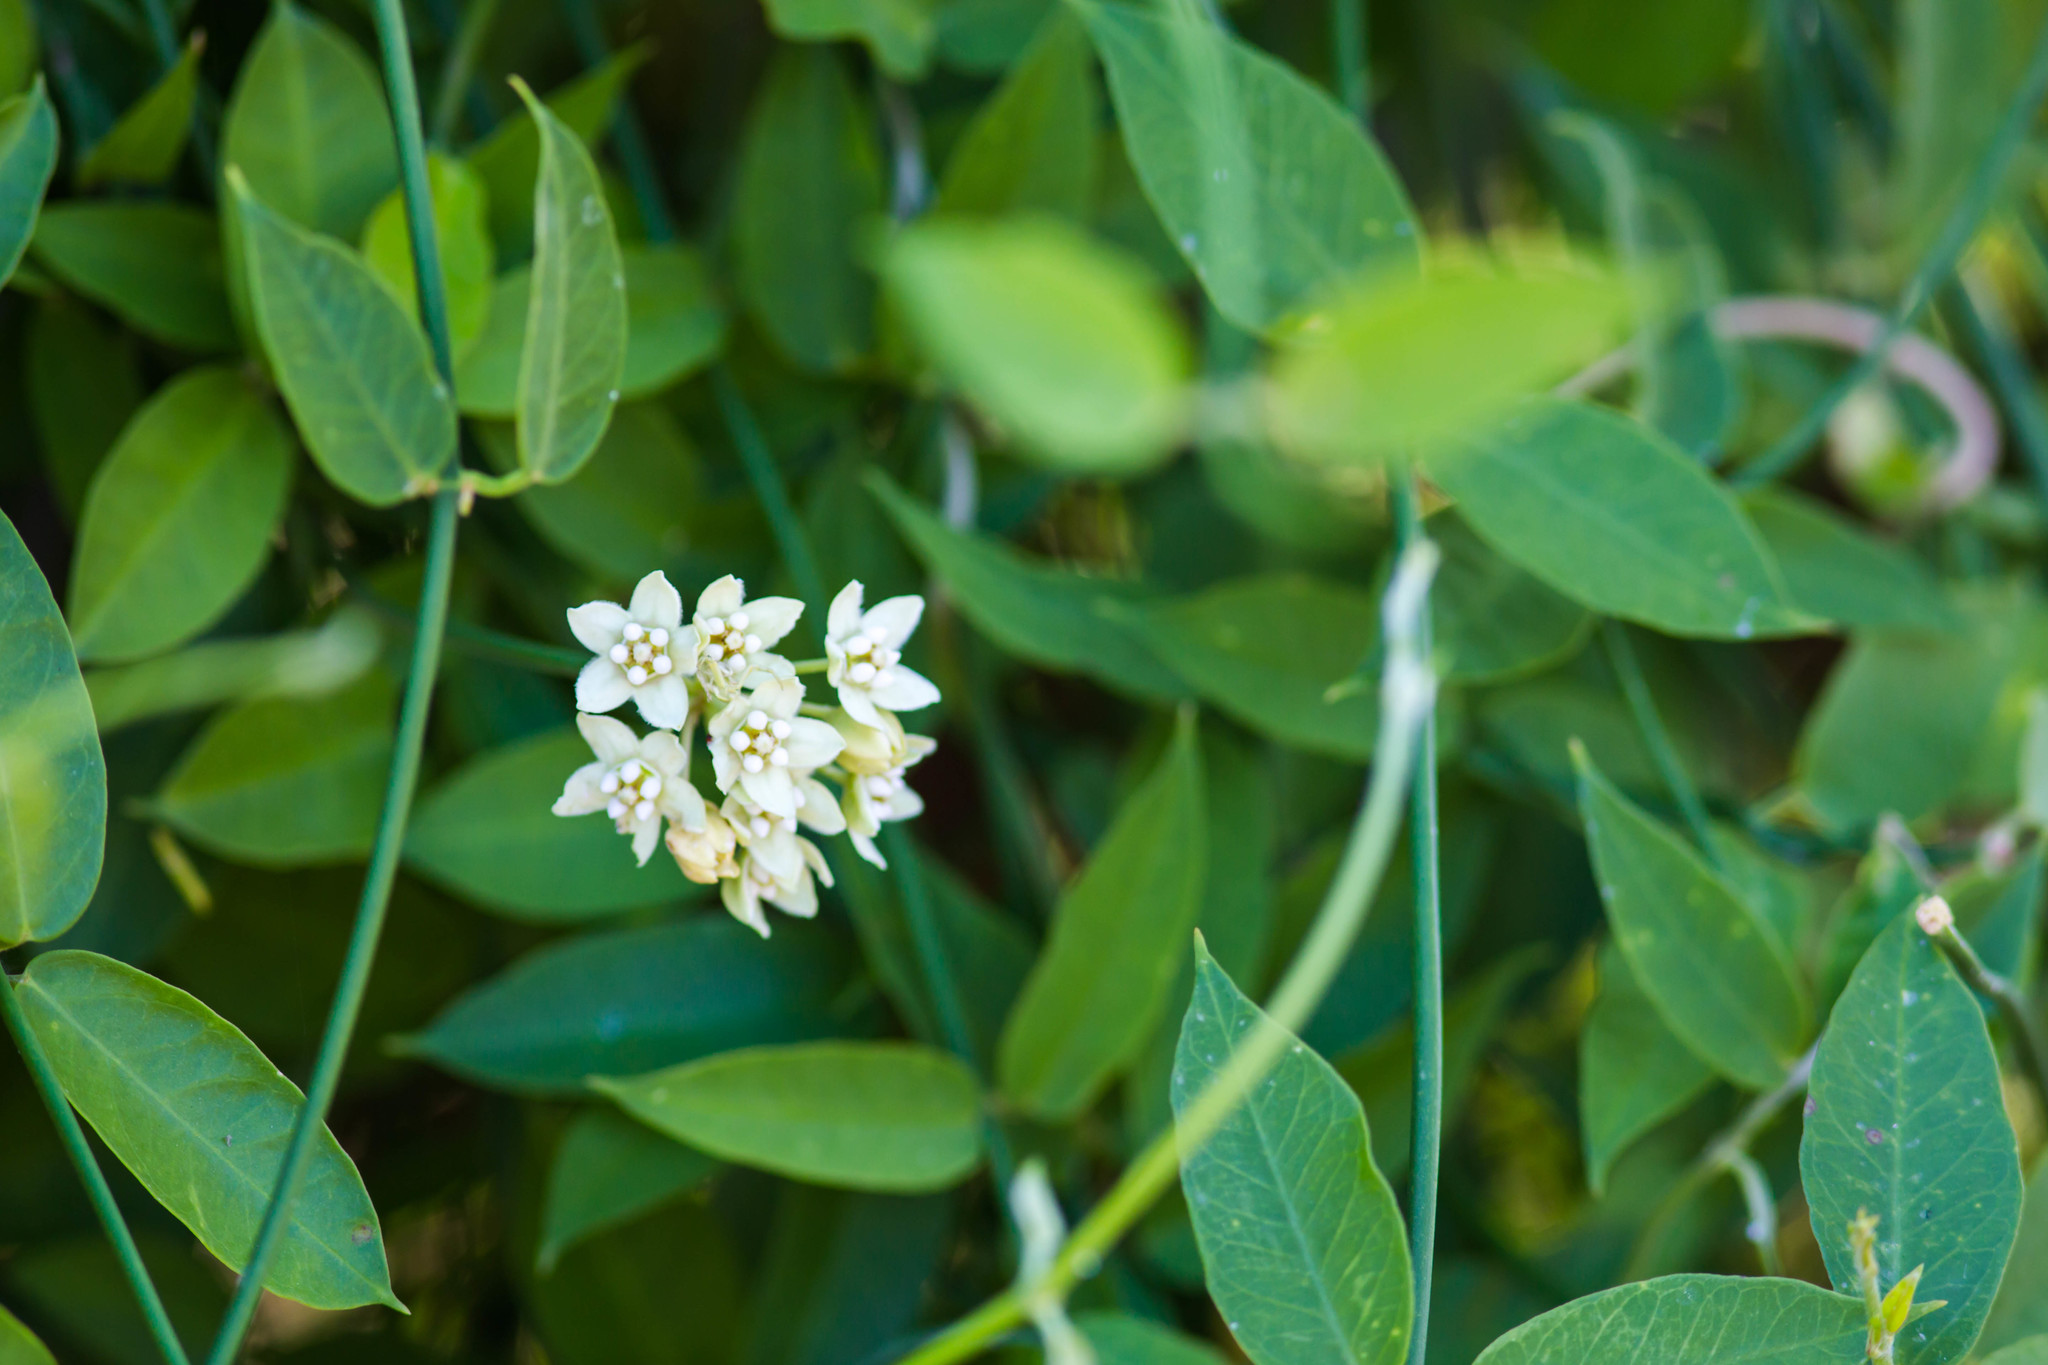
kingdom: Plantae
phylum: Tracheophyta
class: Magnoliopsida
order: Gentianales
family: Apocynaceae
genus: Funastrum
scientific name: Funastrum clausum
